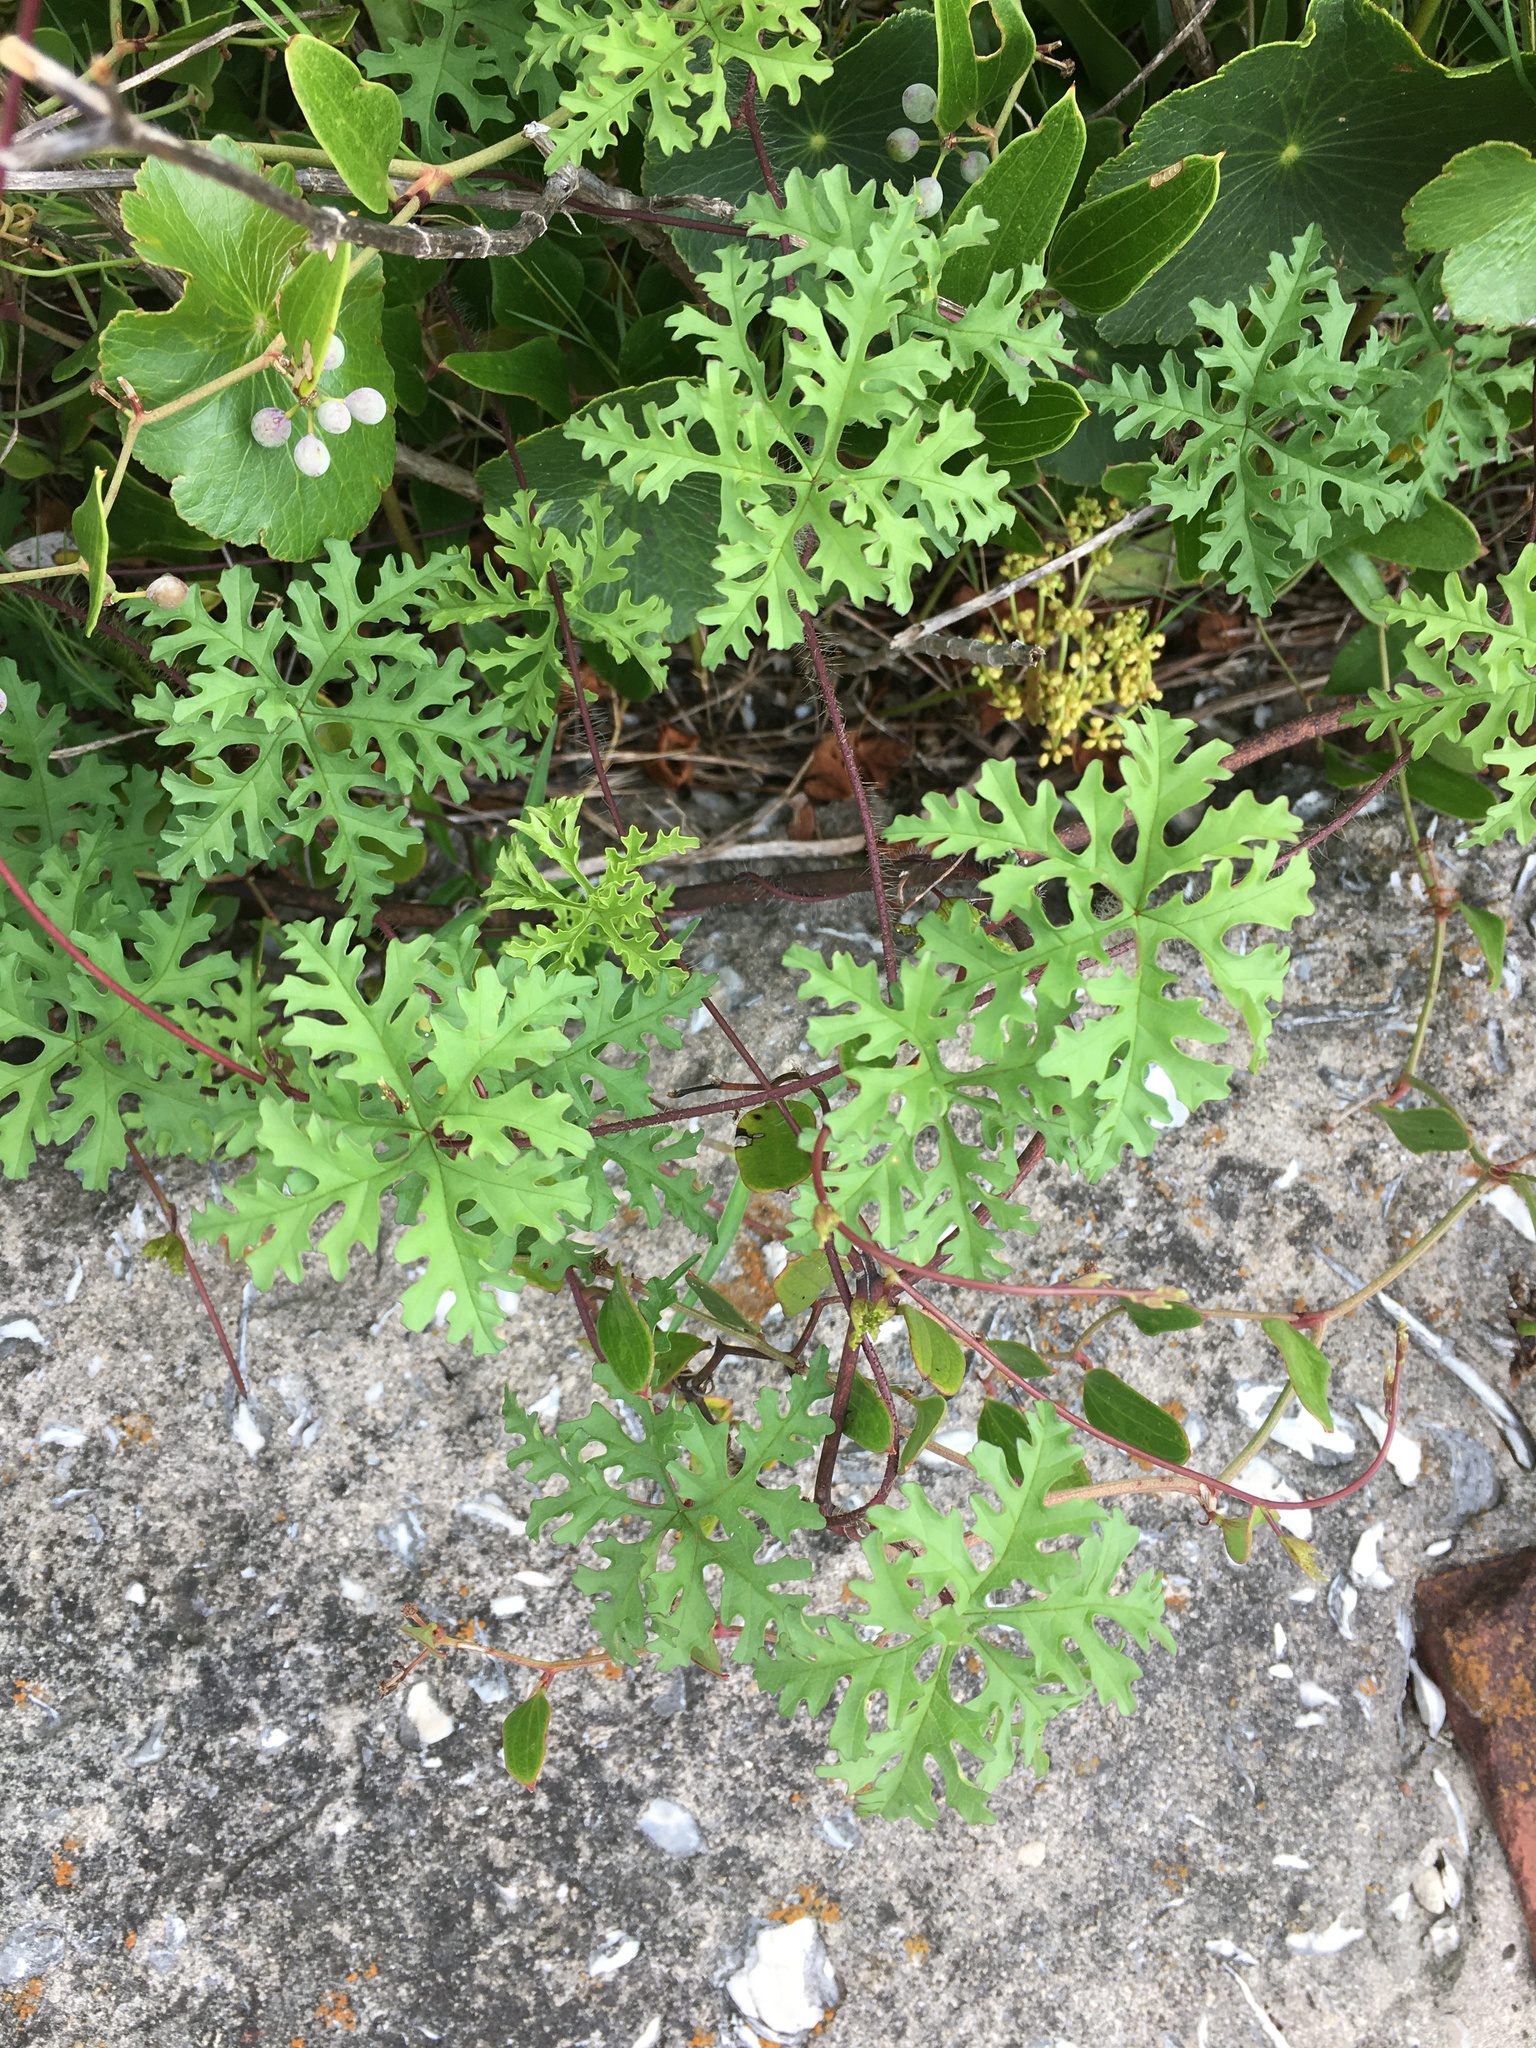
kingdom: Plantae
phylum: Tracheophyta
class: Magnoliopsida
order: Solanales
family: Convolvulaceae
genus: Distimake
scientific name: Distimake dissectus
